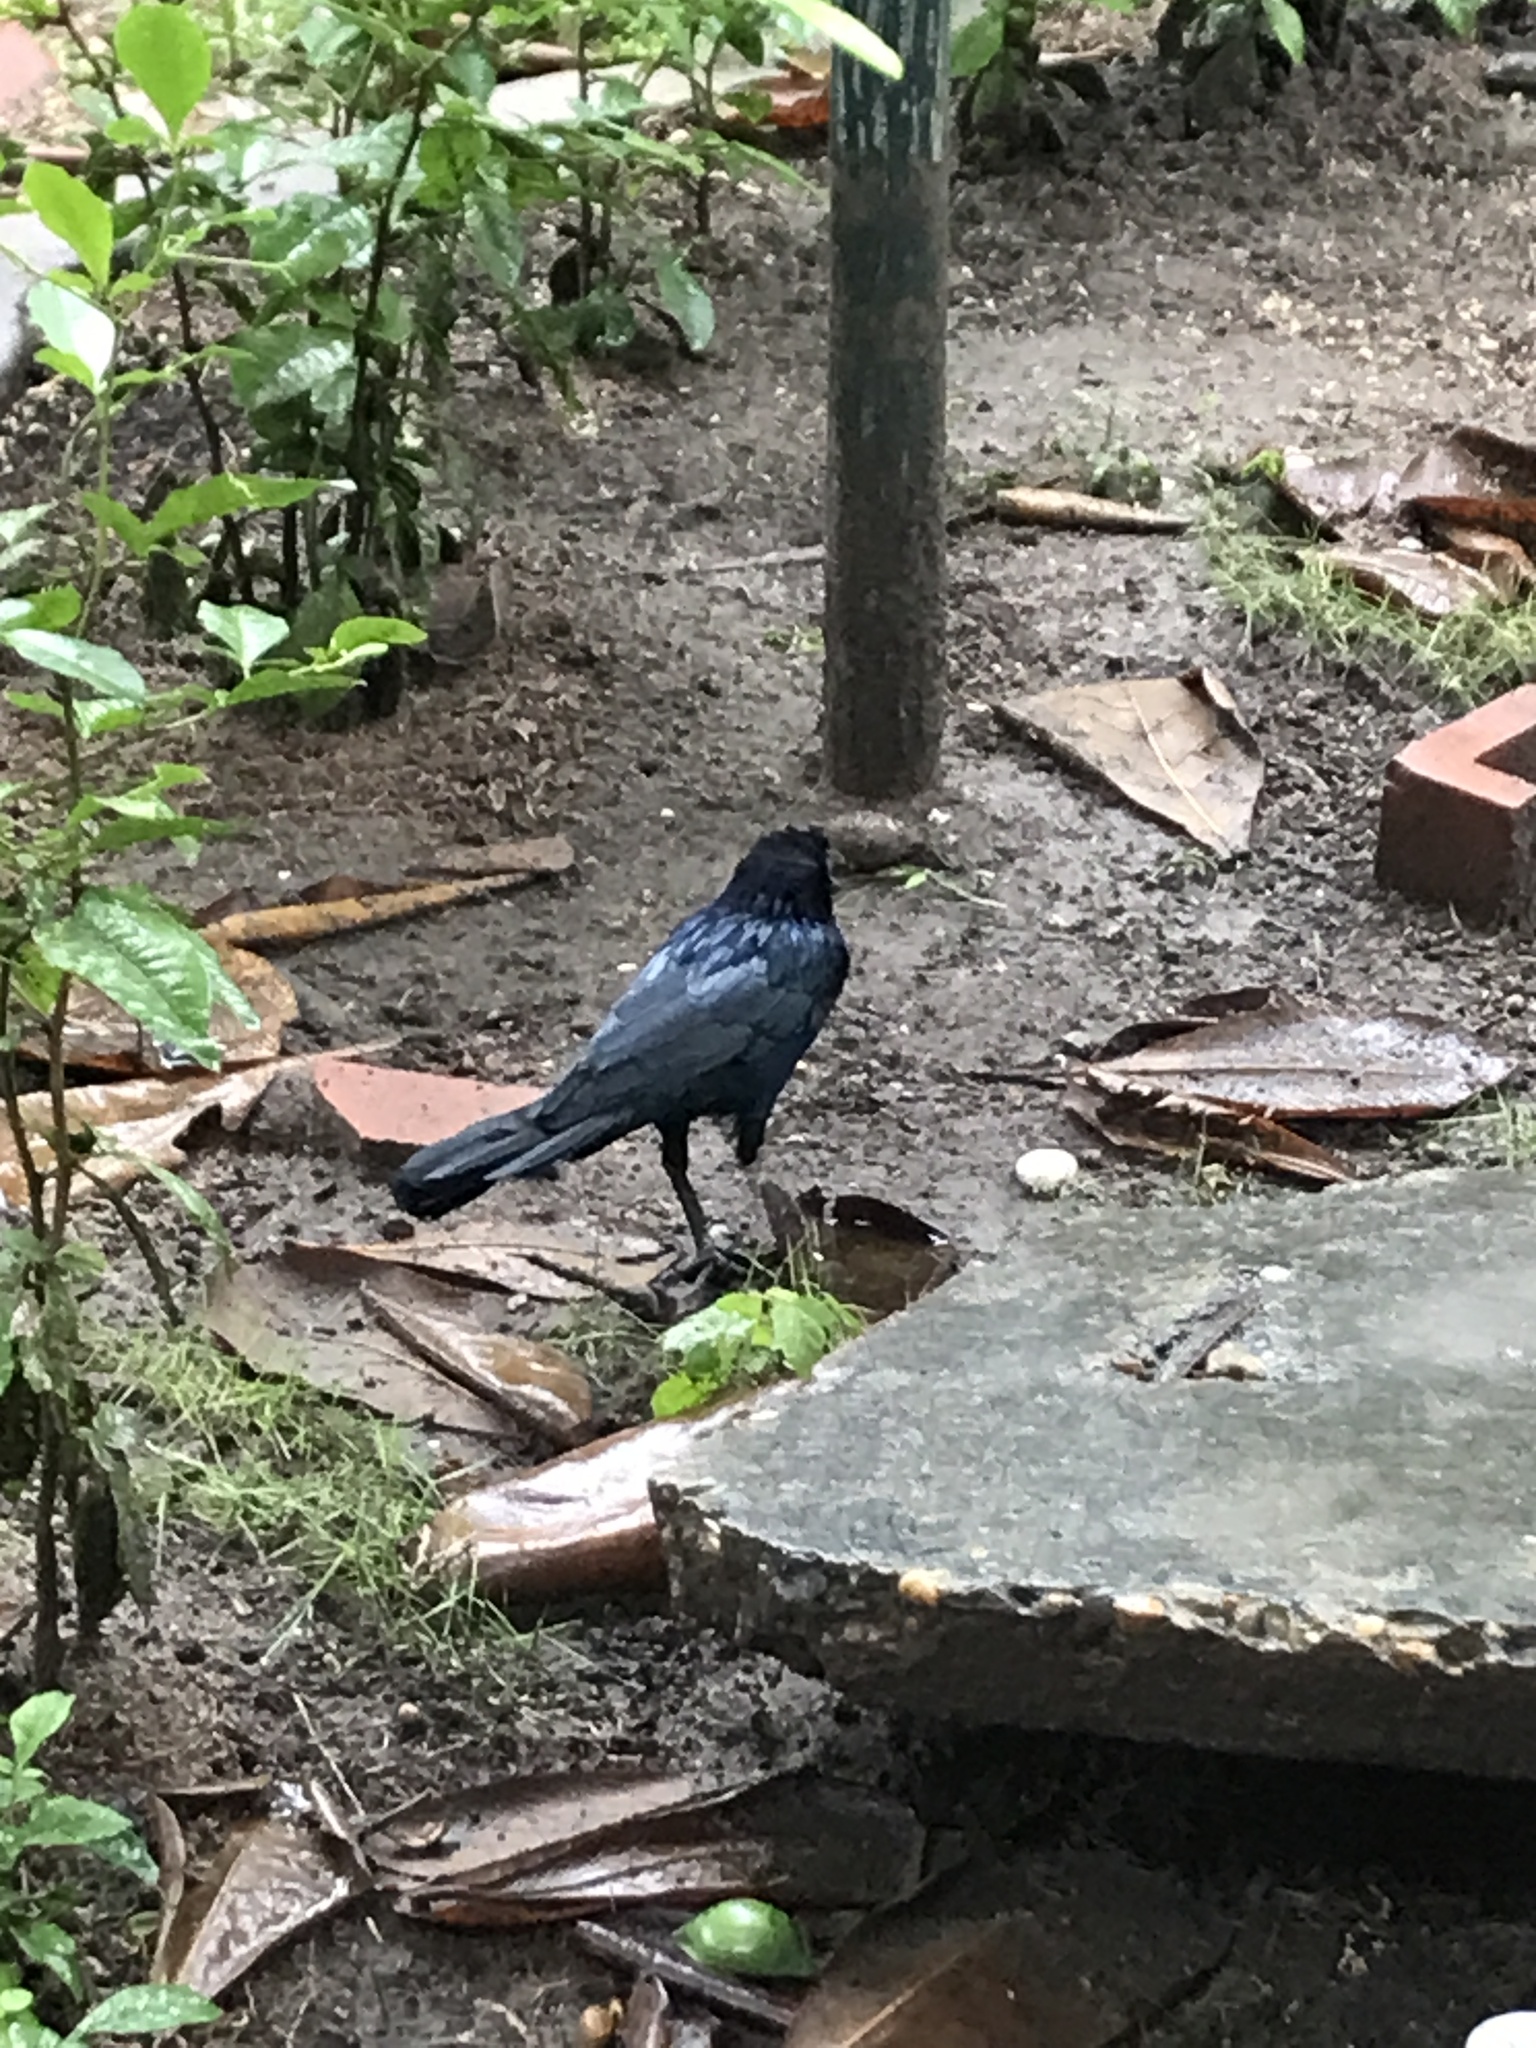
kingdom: Animalia
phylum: Chordata
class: Aves
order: Passeriformes
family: Icteridae
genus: Quiscalus
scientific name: Quiscalus mexicanus
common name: Great-tailed grackle
